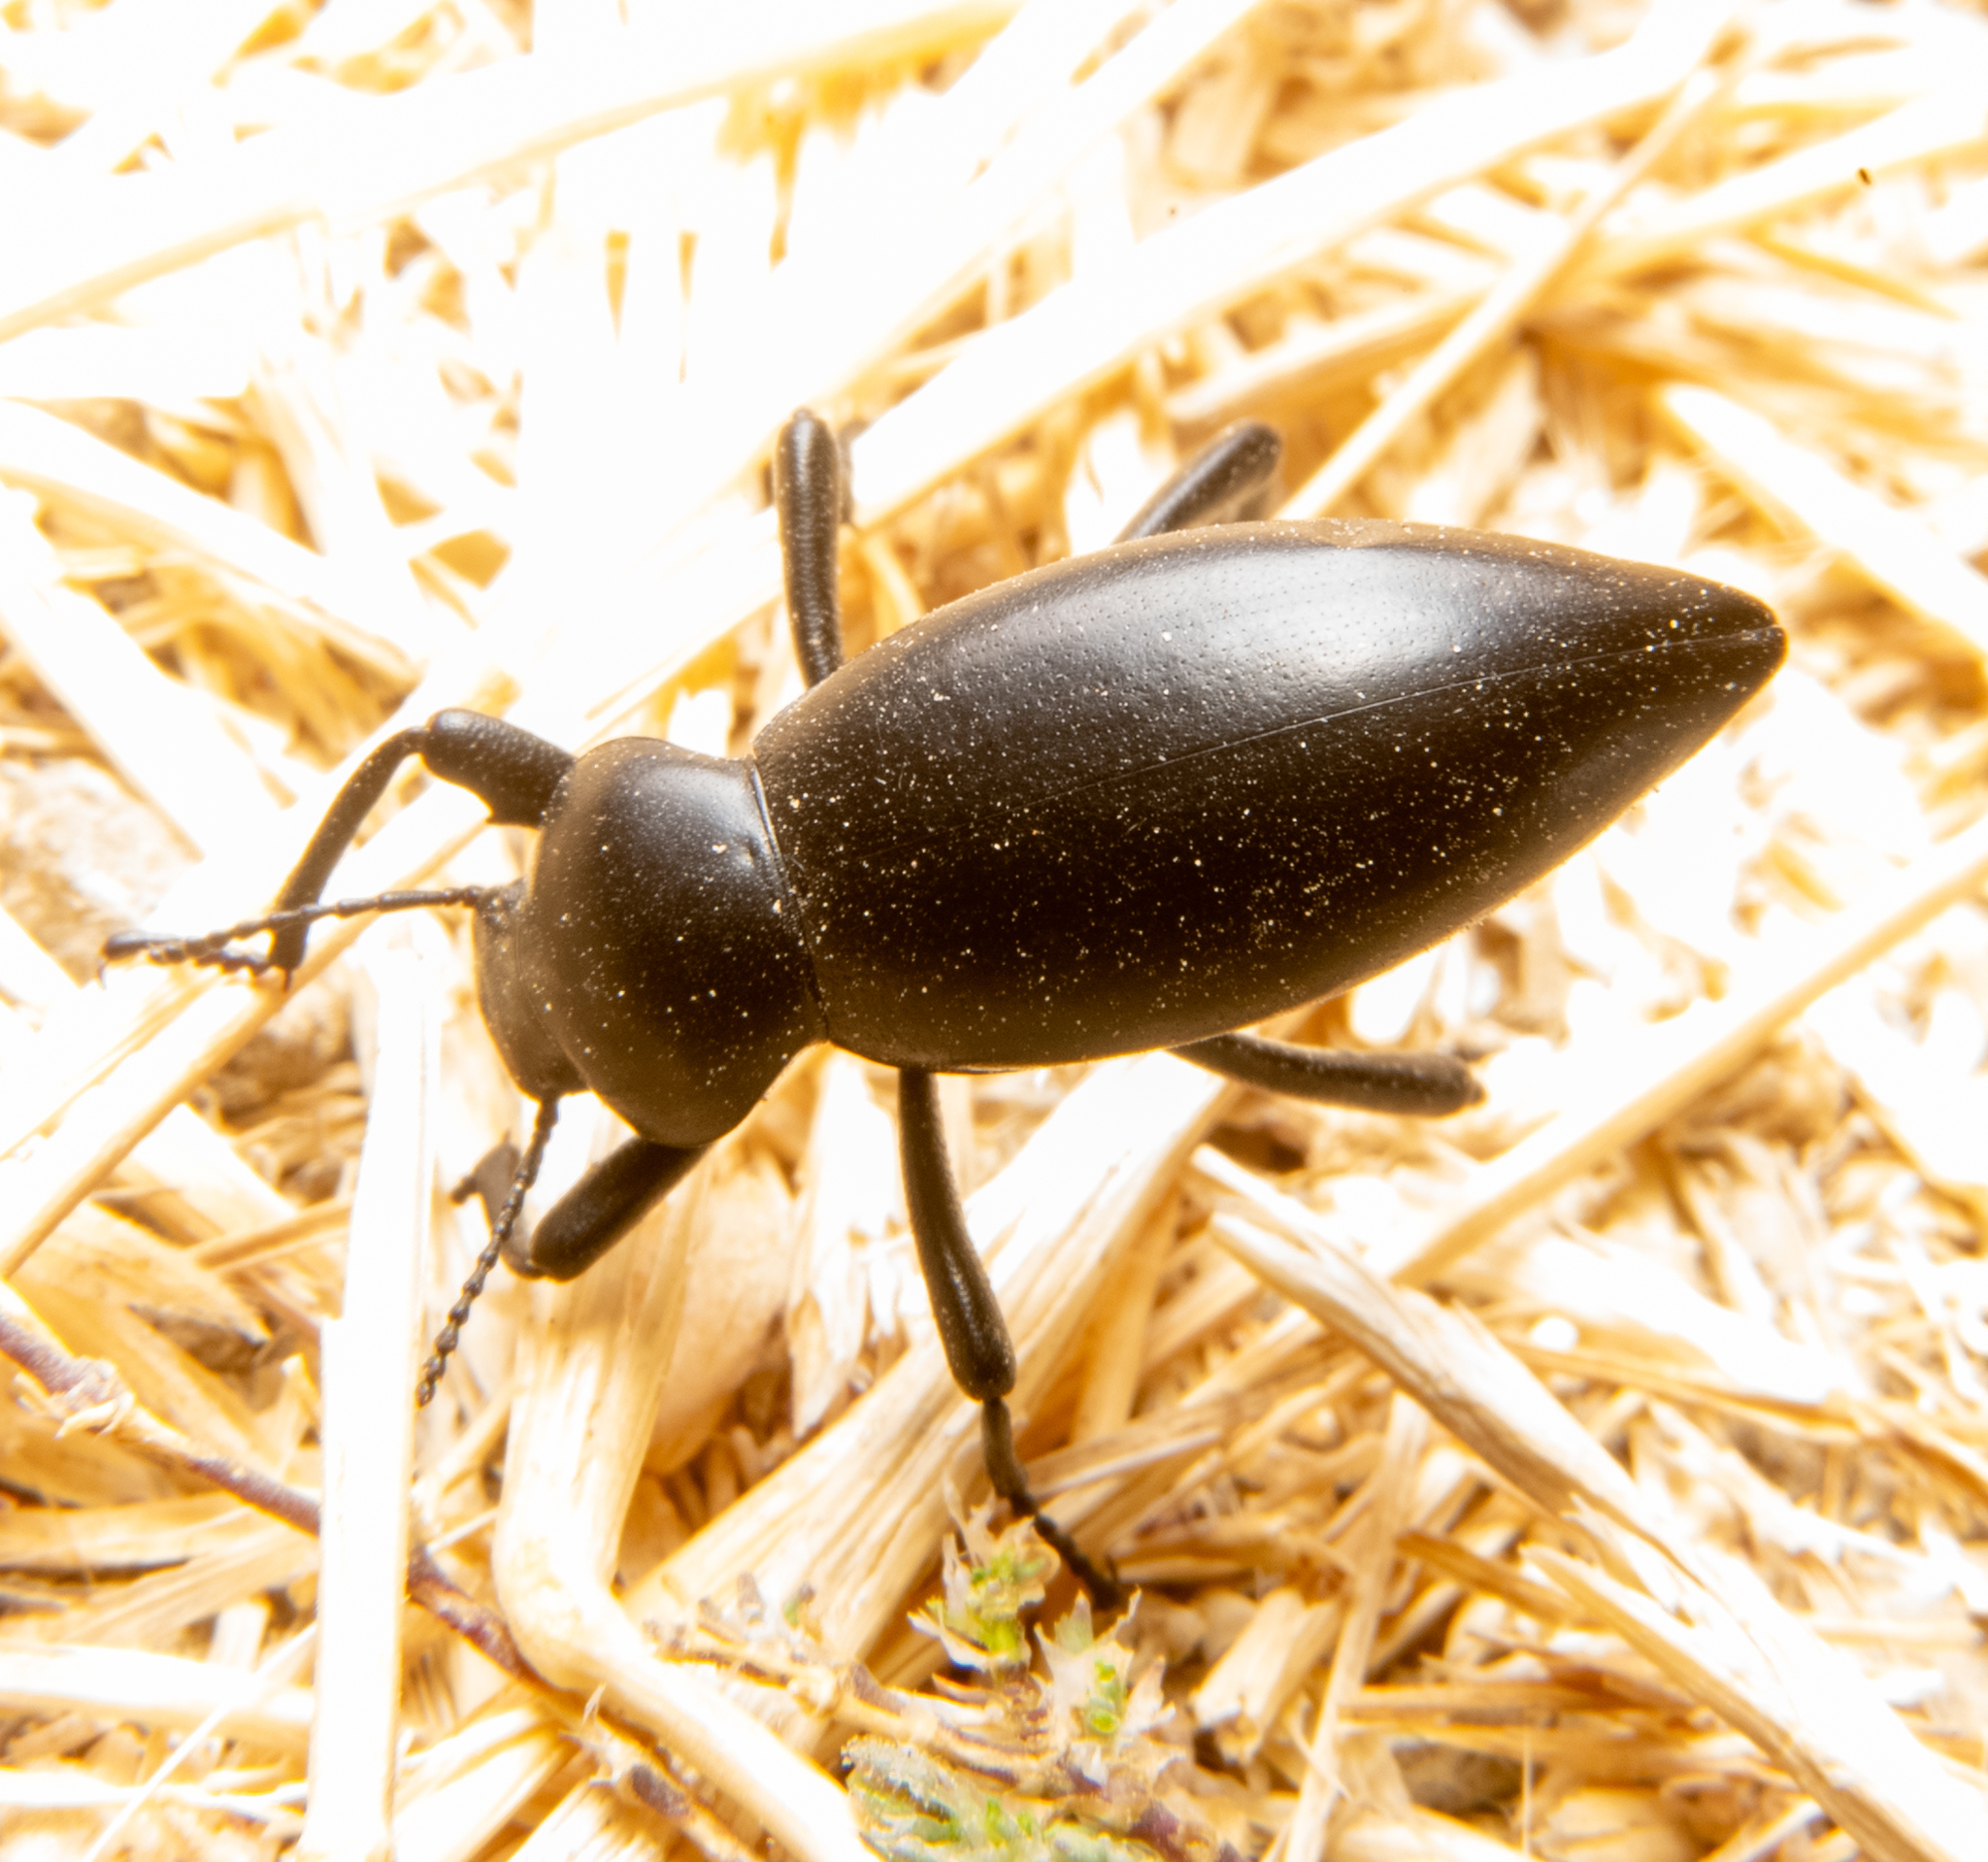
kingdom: Animalia
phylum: Arthropoda
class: Insecta
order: Coleoptera
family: Tenebrionidae
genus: Eleodes
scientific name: Eleodes acuticauda
